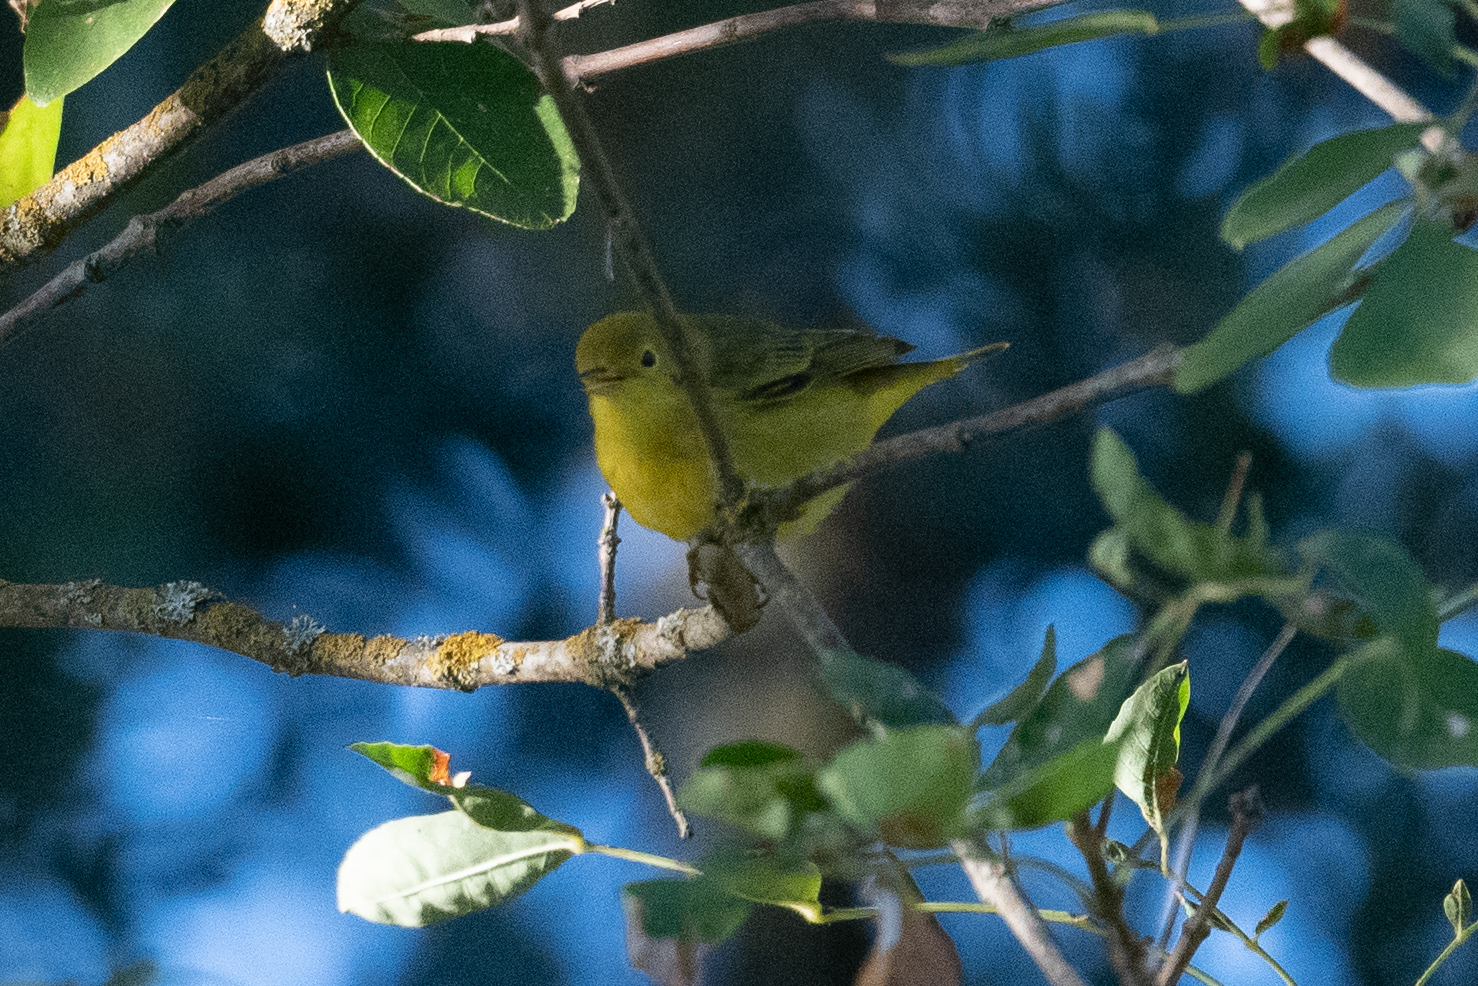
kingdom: Animalia
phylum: Chordata
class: Aves
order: Passeriformes
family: Parulidae
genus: Setophaga
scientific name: Setophaga petechia
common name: Yellow warbler
